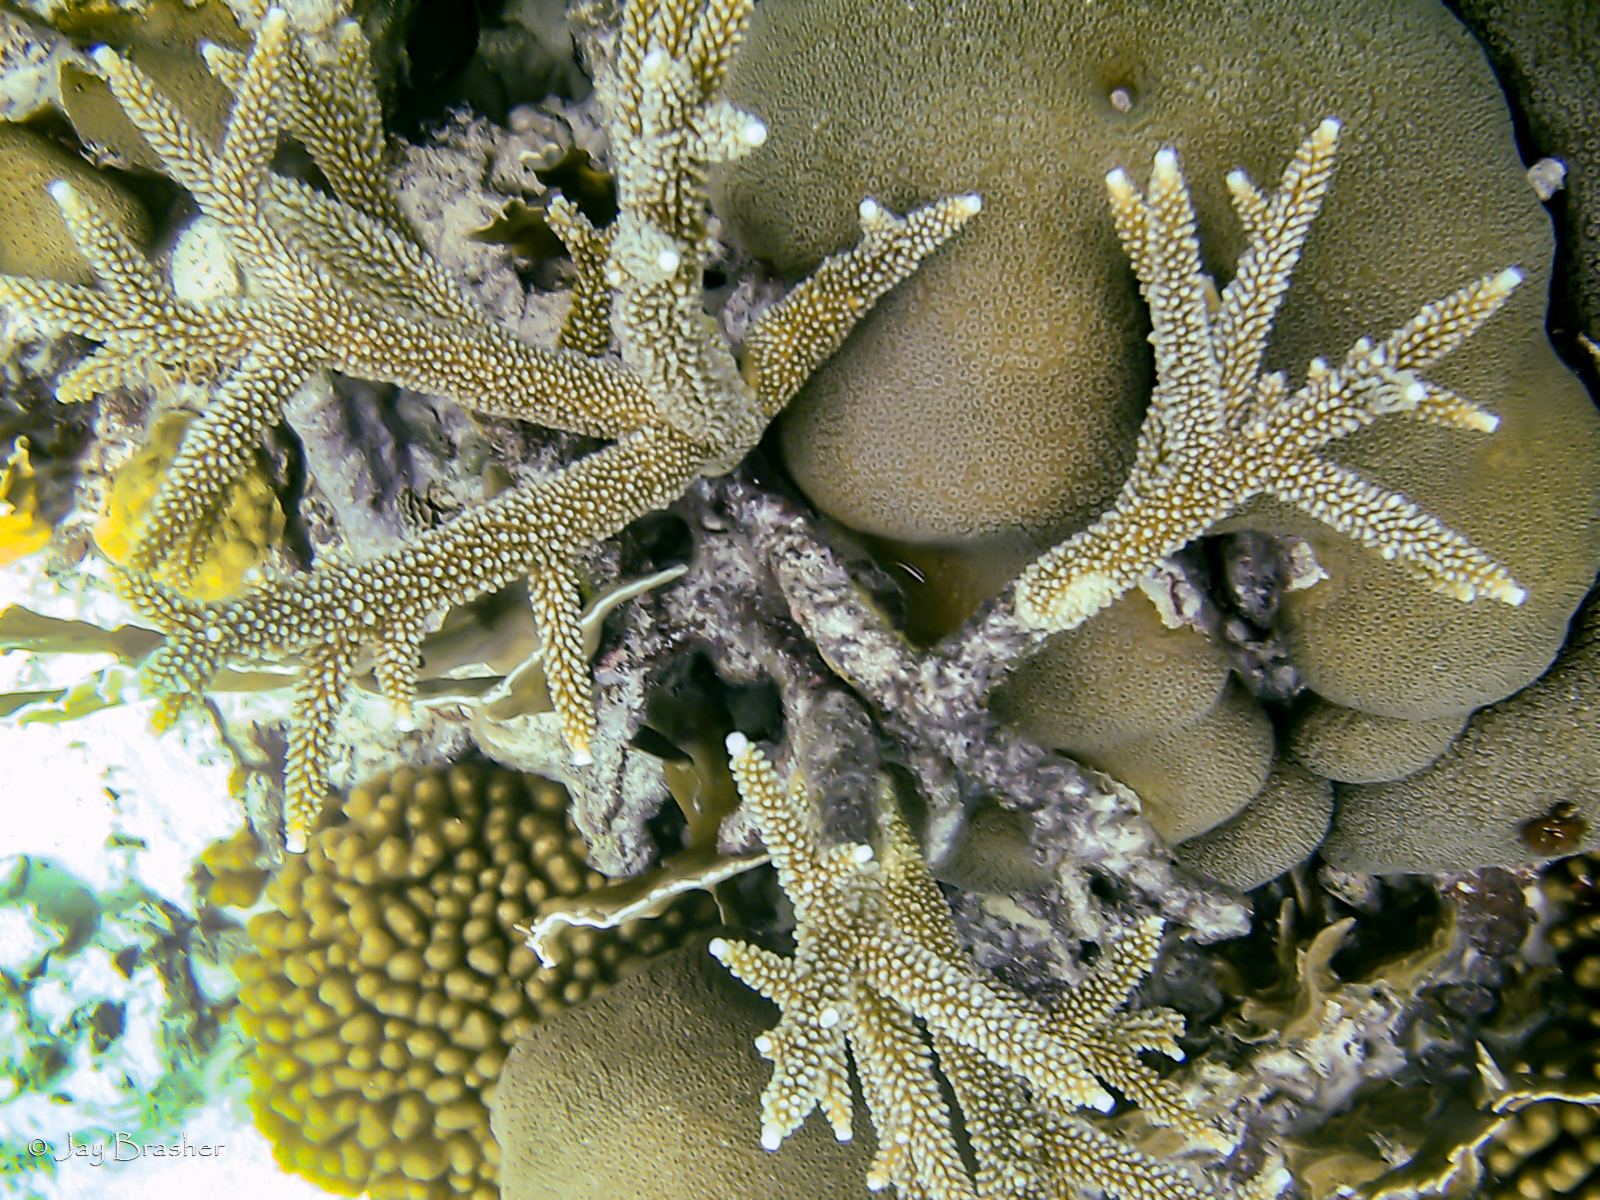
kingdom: Animalia
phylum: Cnidaria
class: Anthozoa
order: Scleractinia
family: Acroporidae
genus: Acropora
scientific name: Acropora cervicornis
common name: Staghorn coral
